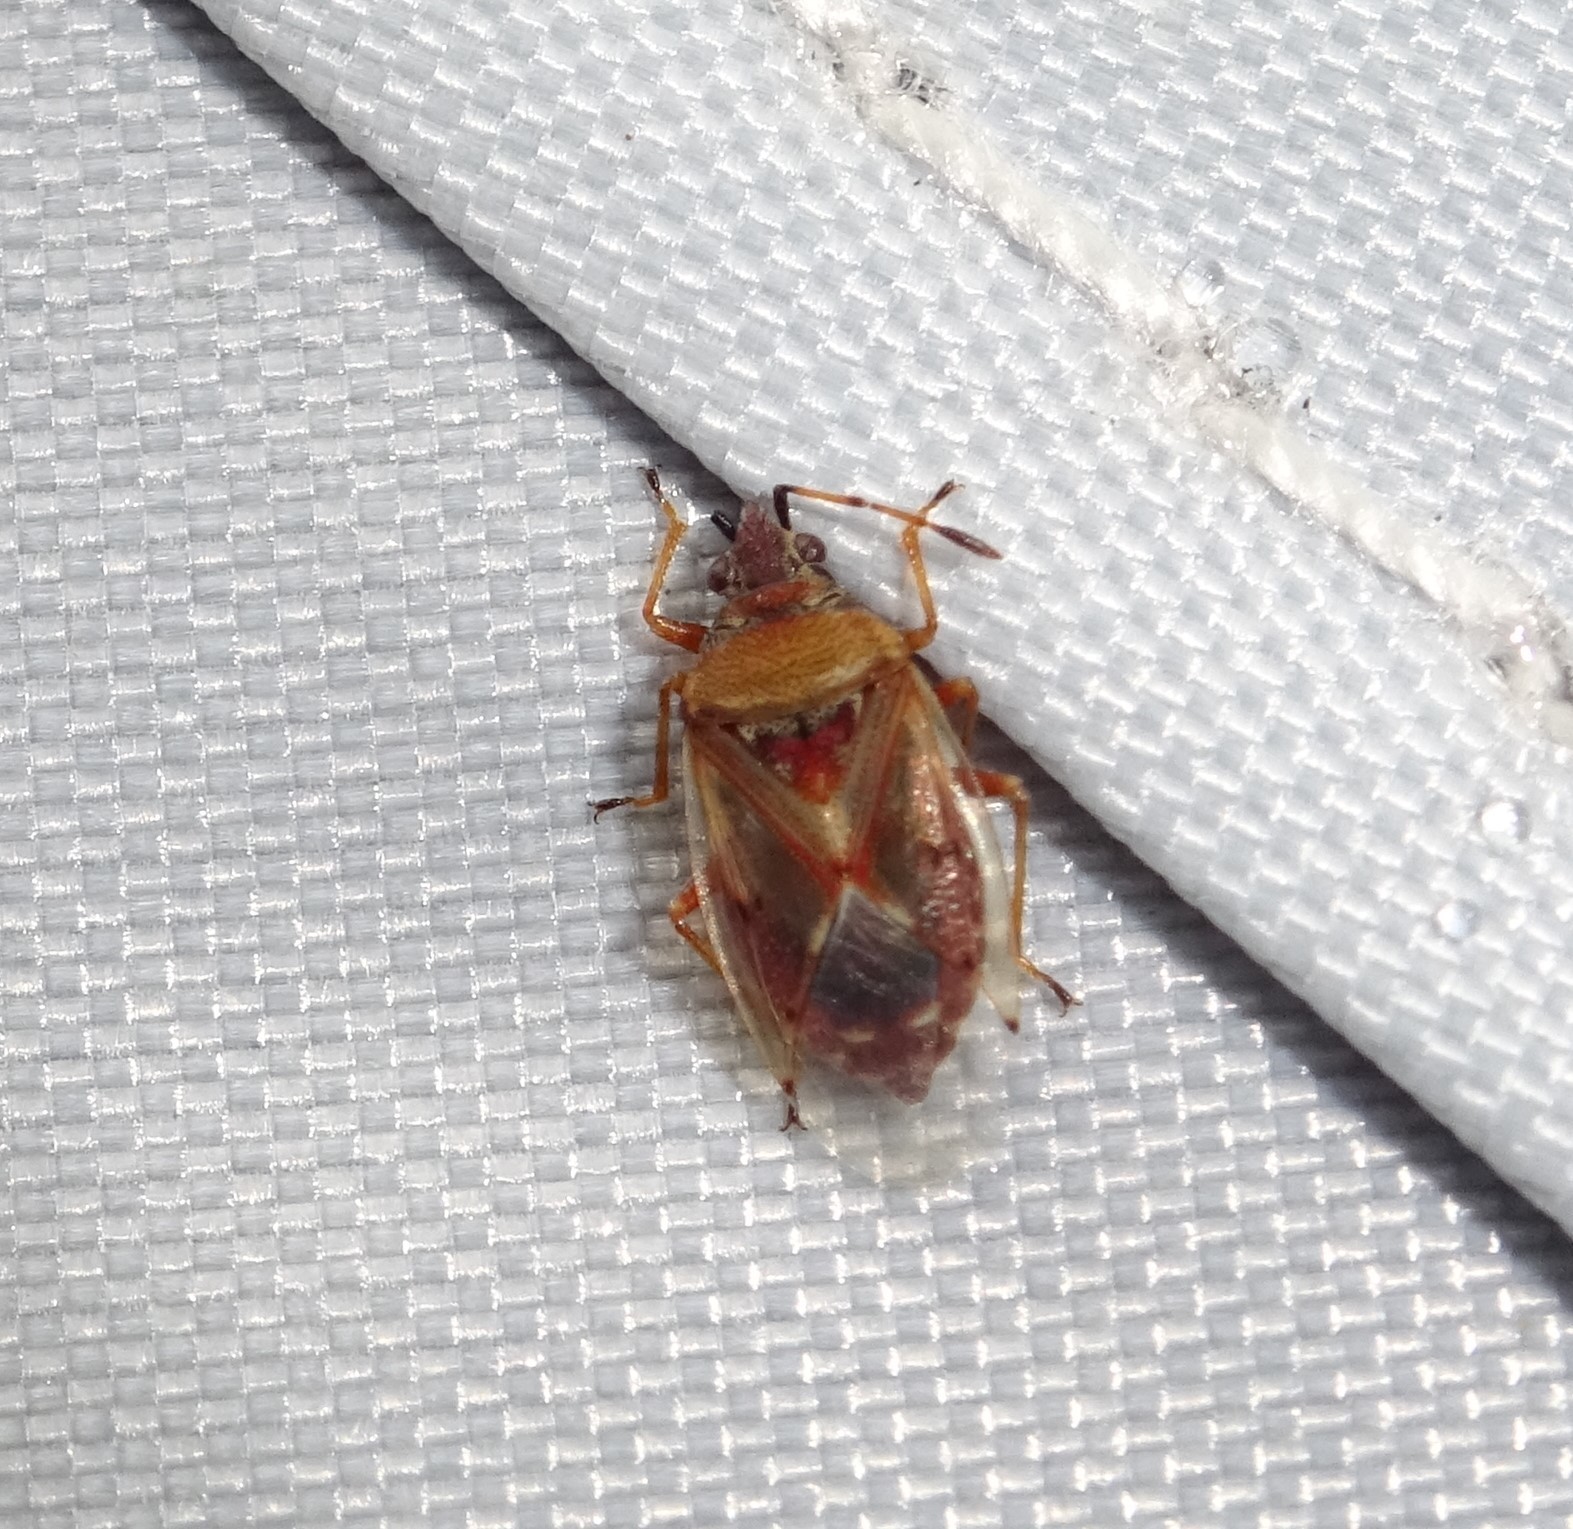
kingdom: Animalia
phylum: Arthropoda
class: Insecta
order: Hemiptera
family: Lygaeidae
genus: Kleidocerys
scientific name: Kleidocerys resedae
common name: Birch catkin bug
